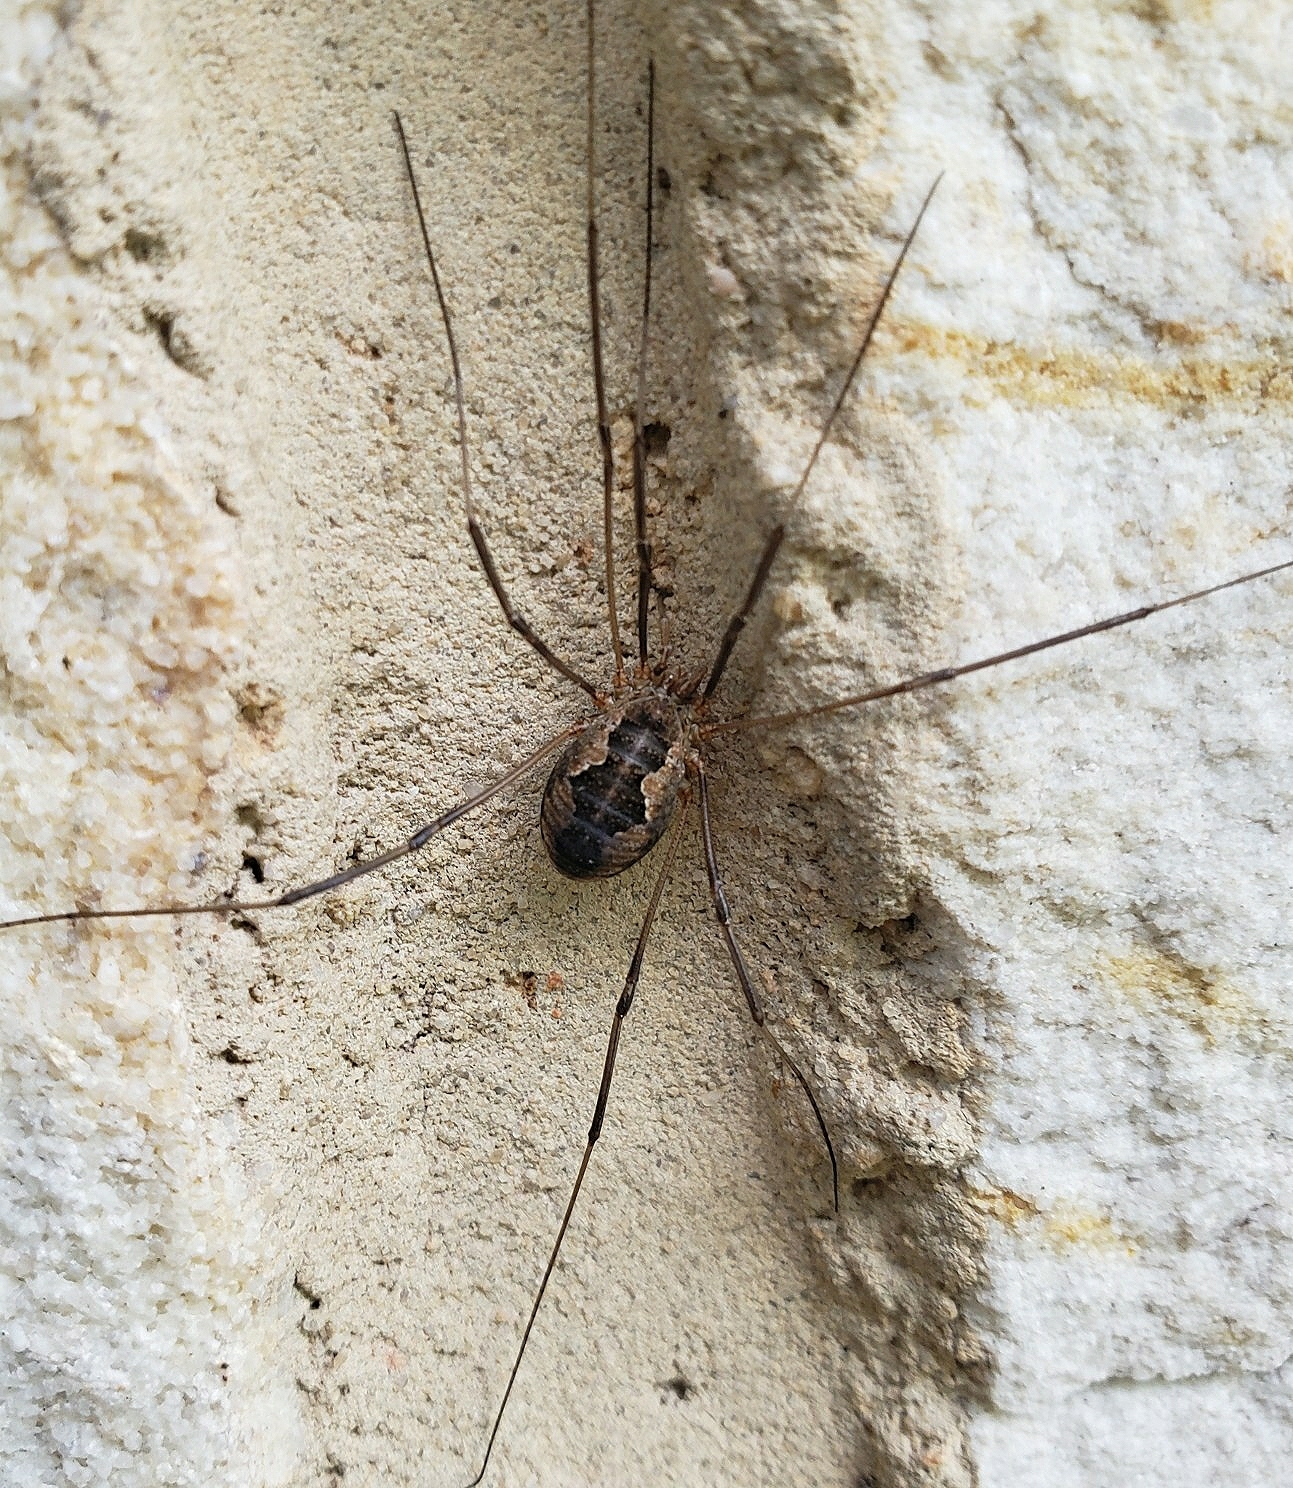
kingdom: Animalia
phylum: Arthropoda
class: Arachnida
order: Opiliones
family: Phalangiidae
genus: Phalangium
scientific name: Phalangium opilio
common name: Daddy longleg
